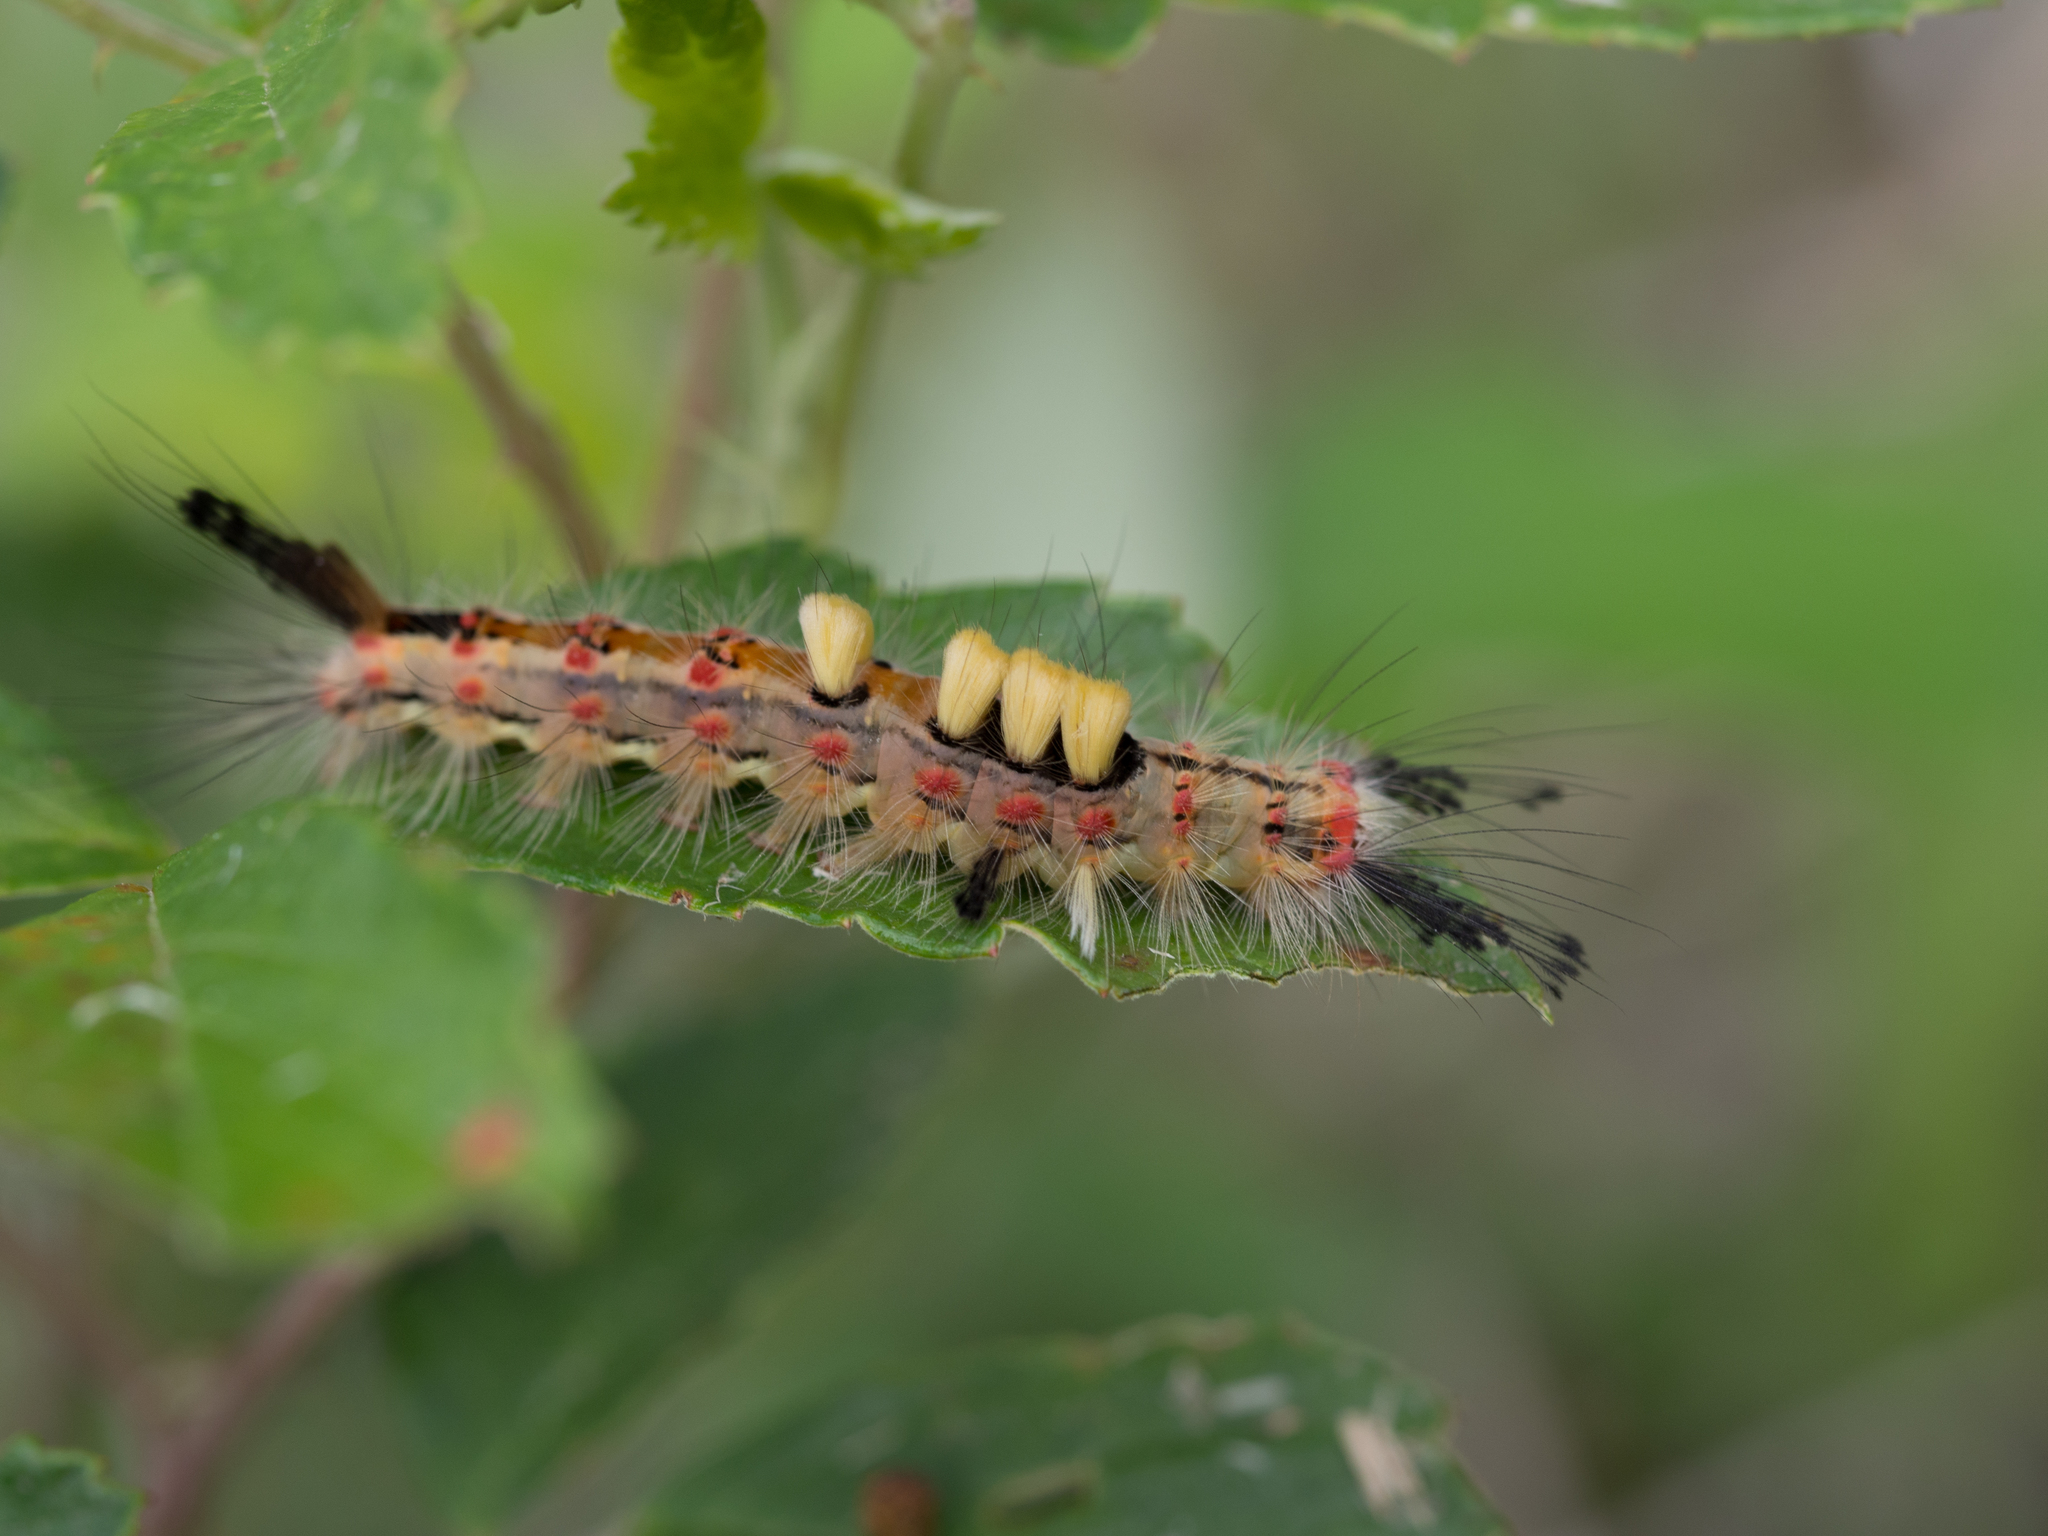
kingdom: Animalia
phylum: Arthropoda
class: Insecta
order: Lepidoptera
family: Erebidae
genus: Orgyia
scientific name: Orgyia antiqua
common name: Vapourer
